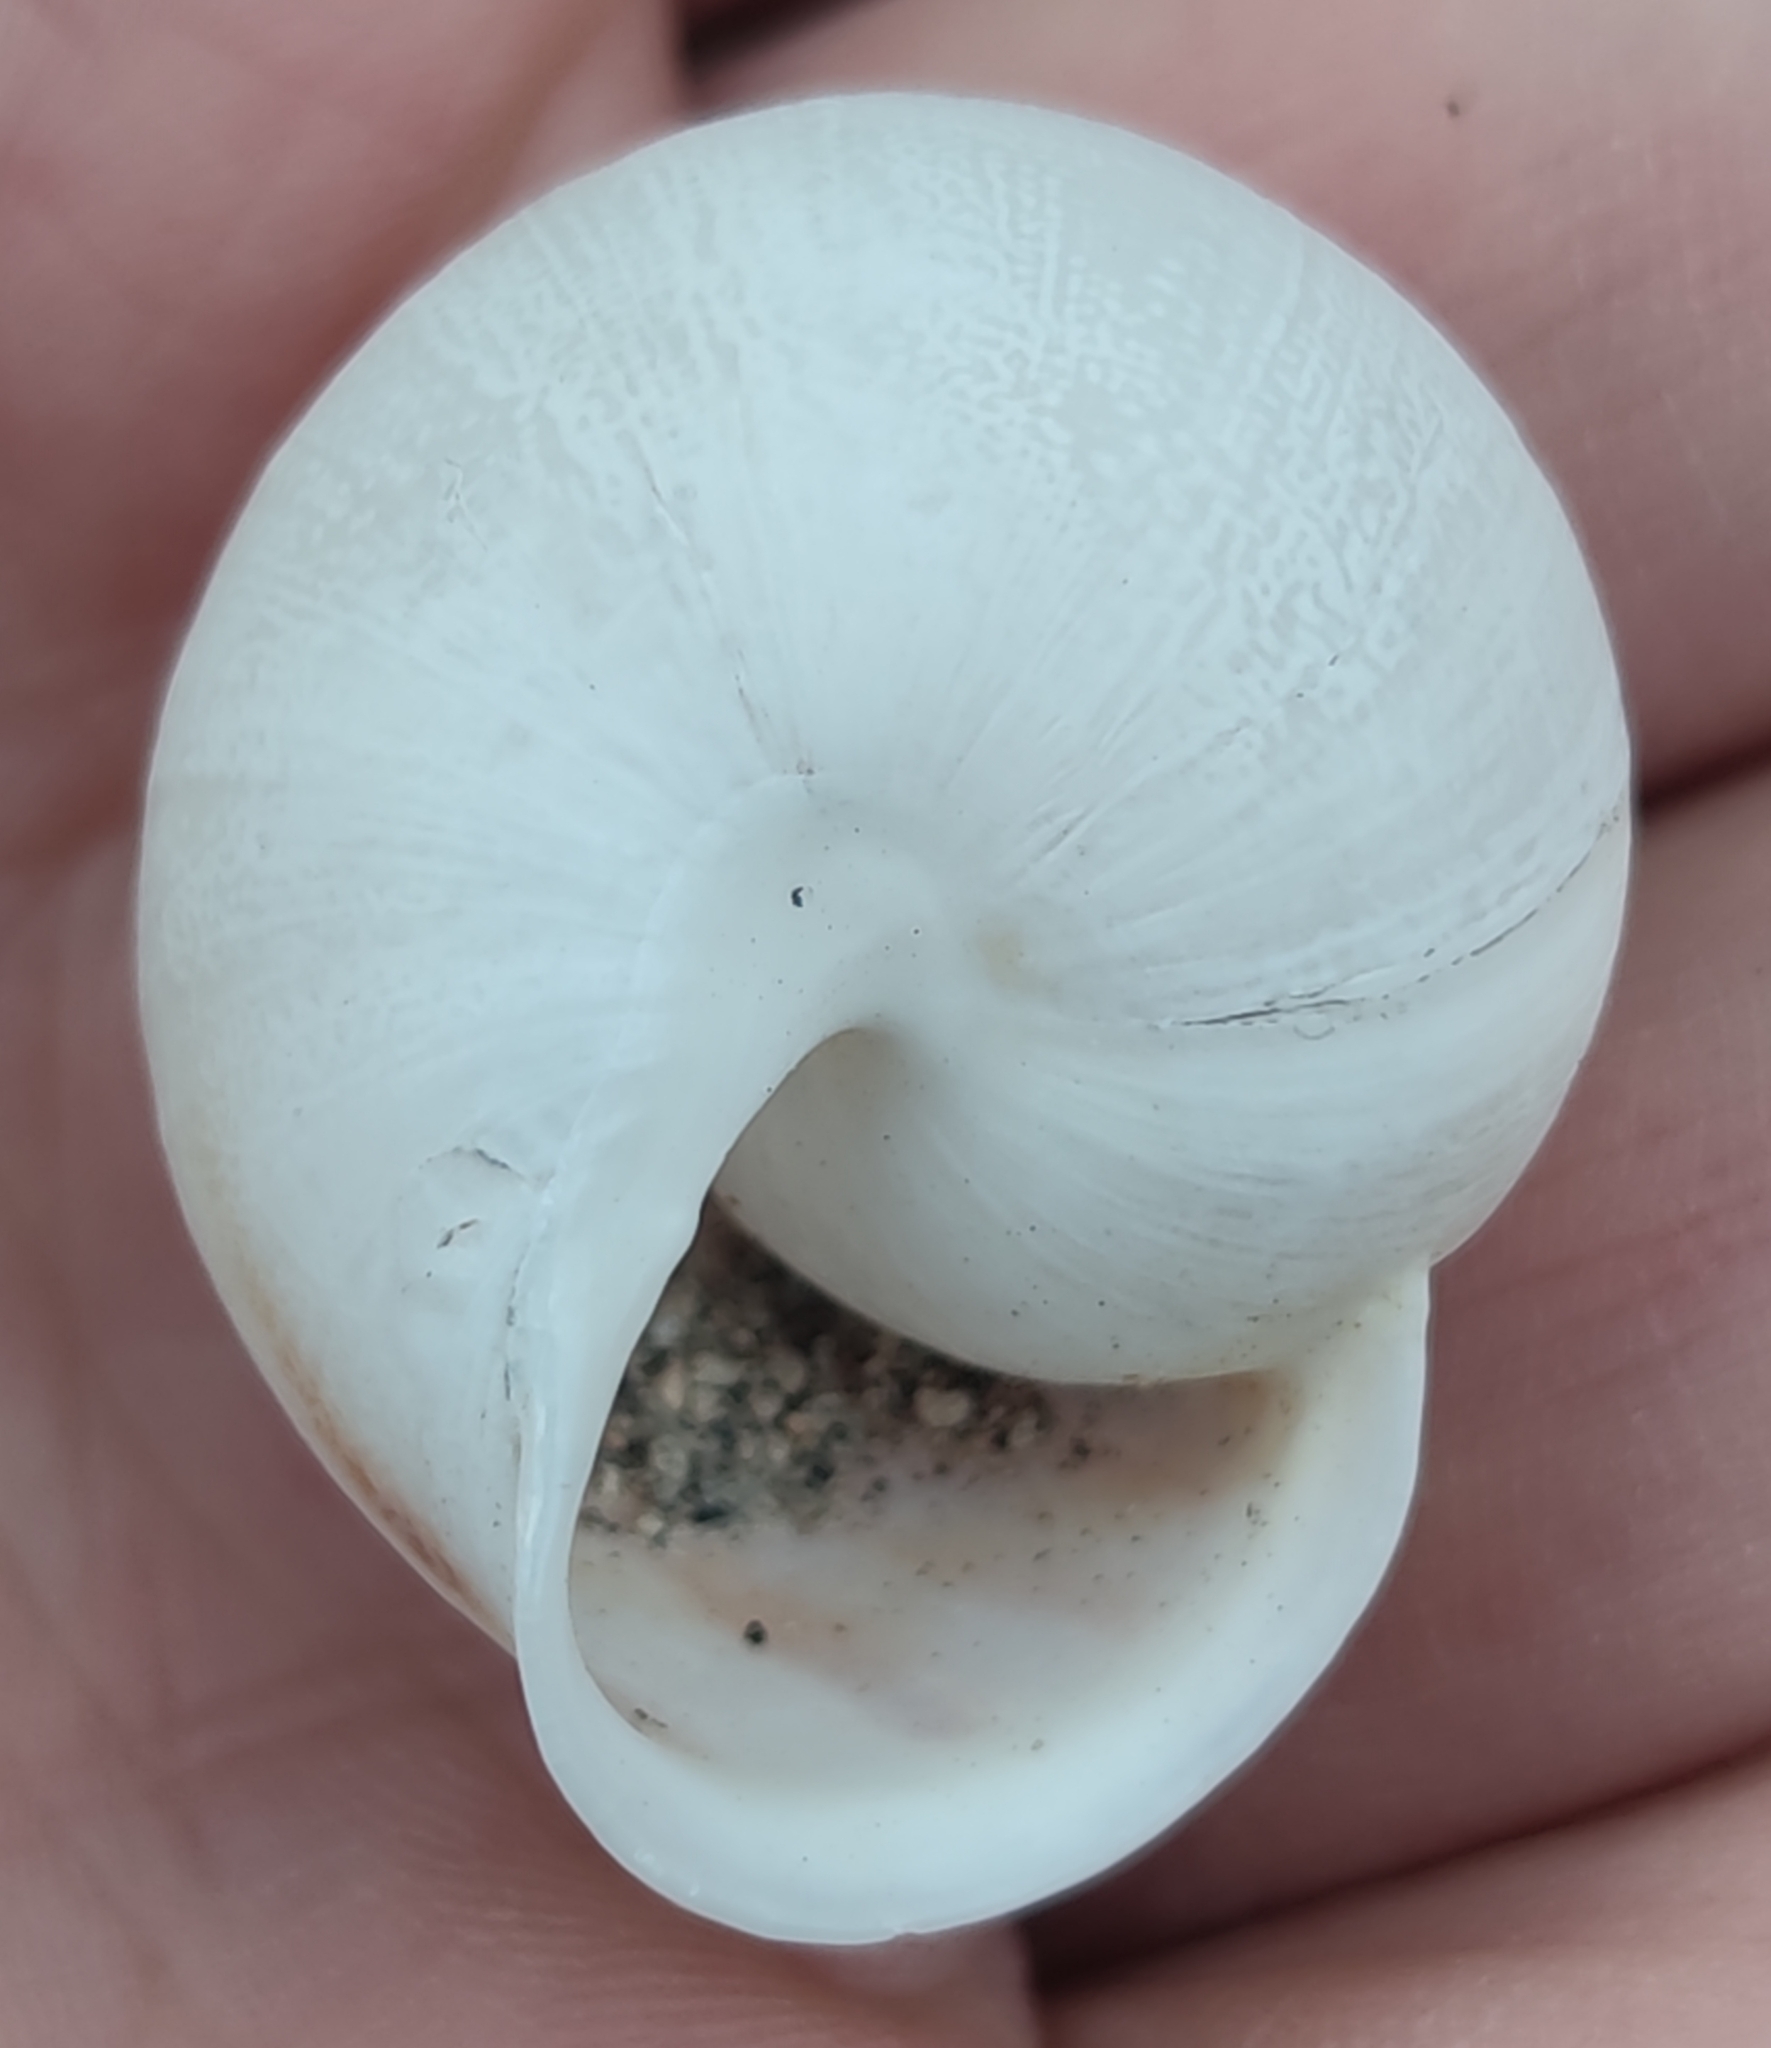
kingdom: Animalia
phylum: Mollusca
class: Gastropoda
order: Stylommatophora
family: Helicidae
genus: Eobania
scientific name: Eobania vermiculata
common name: Chocolateband snail
